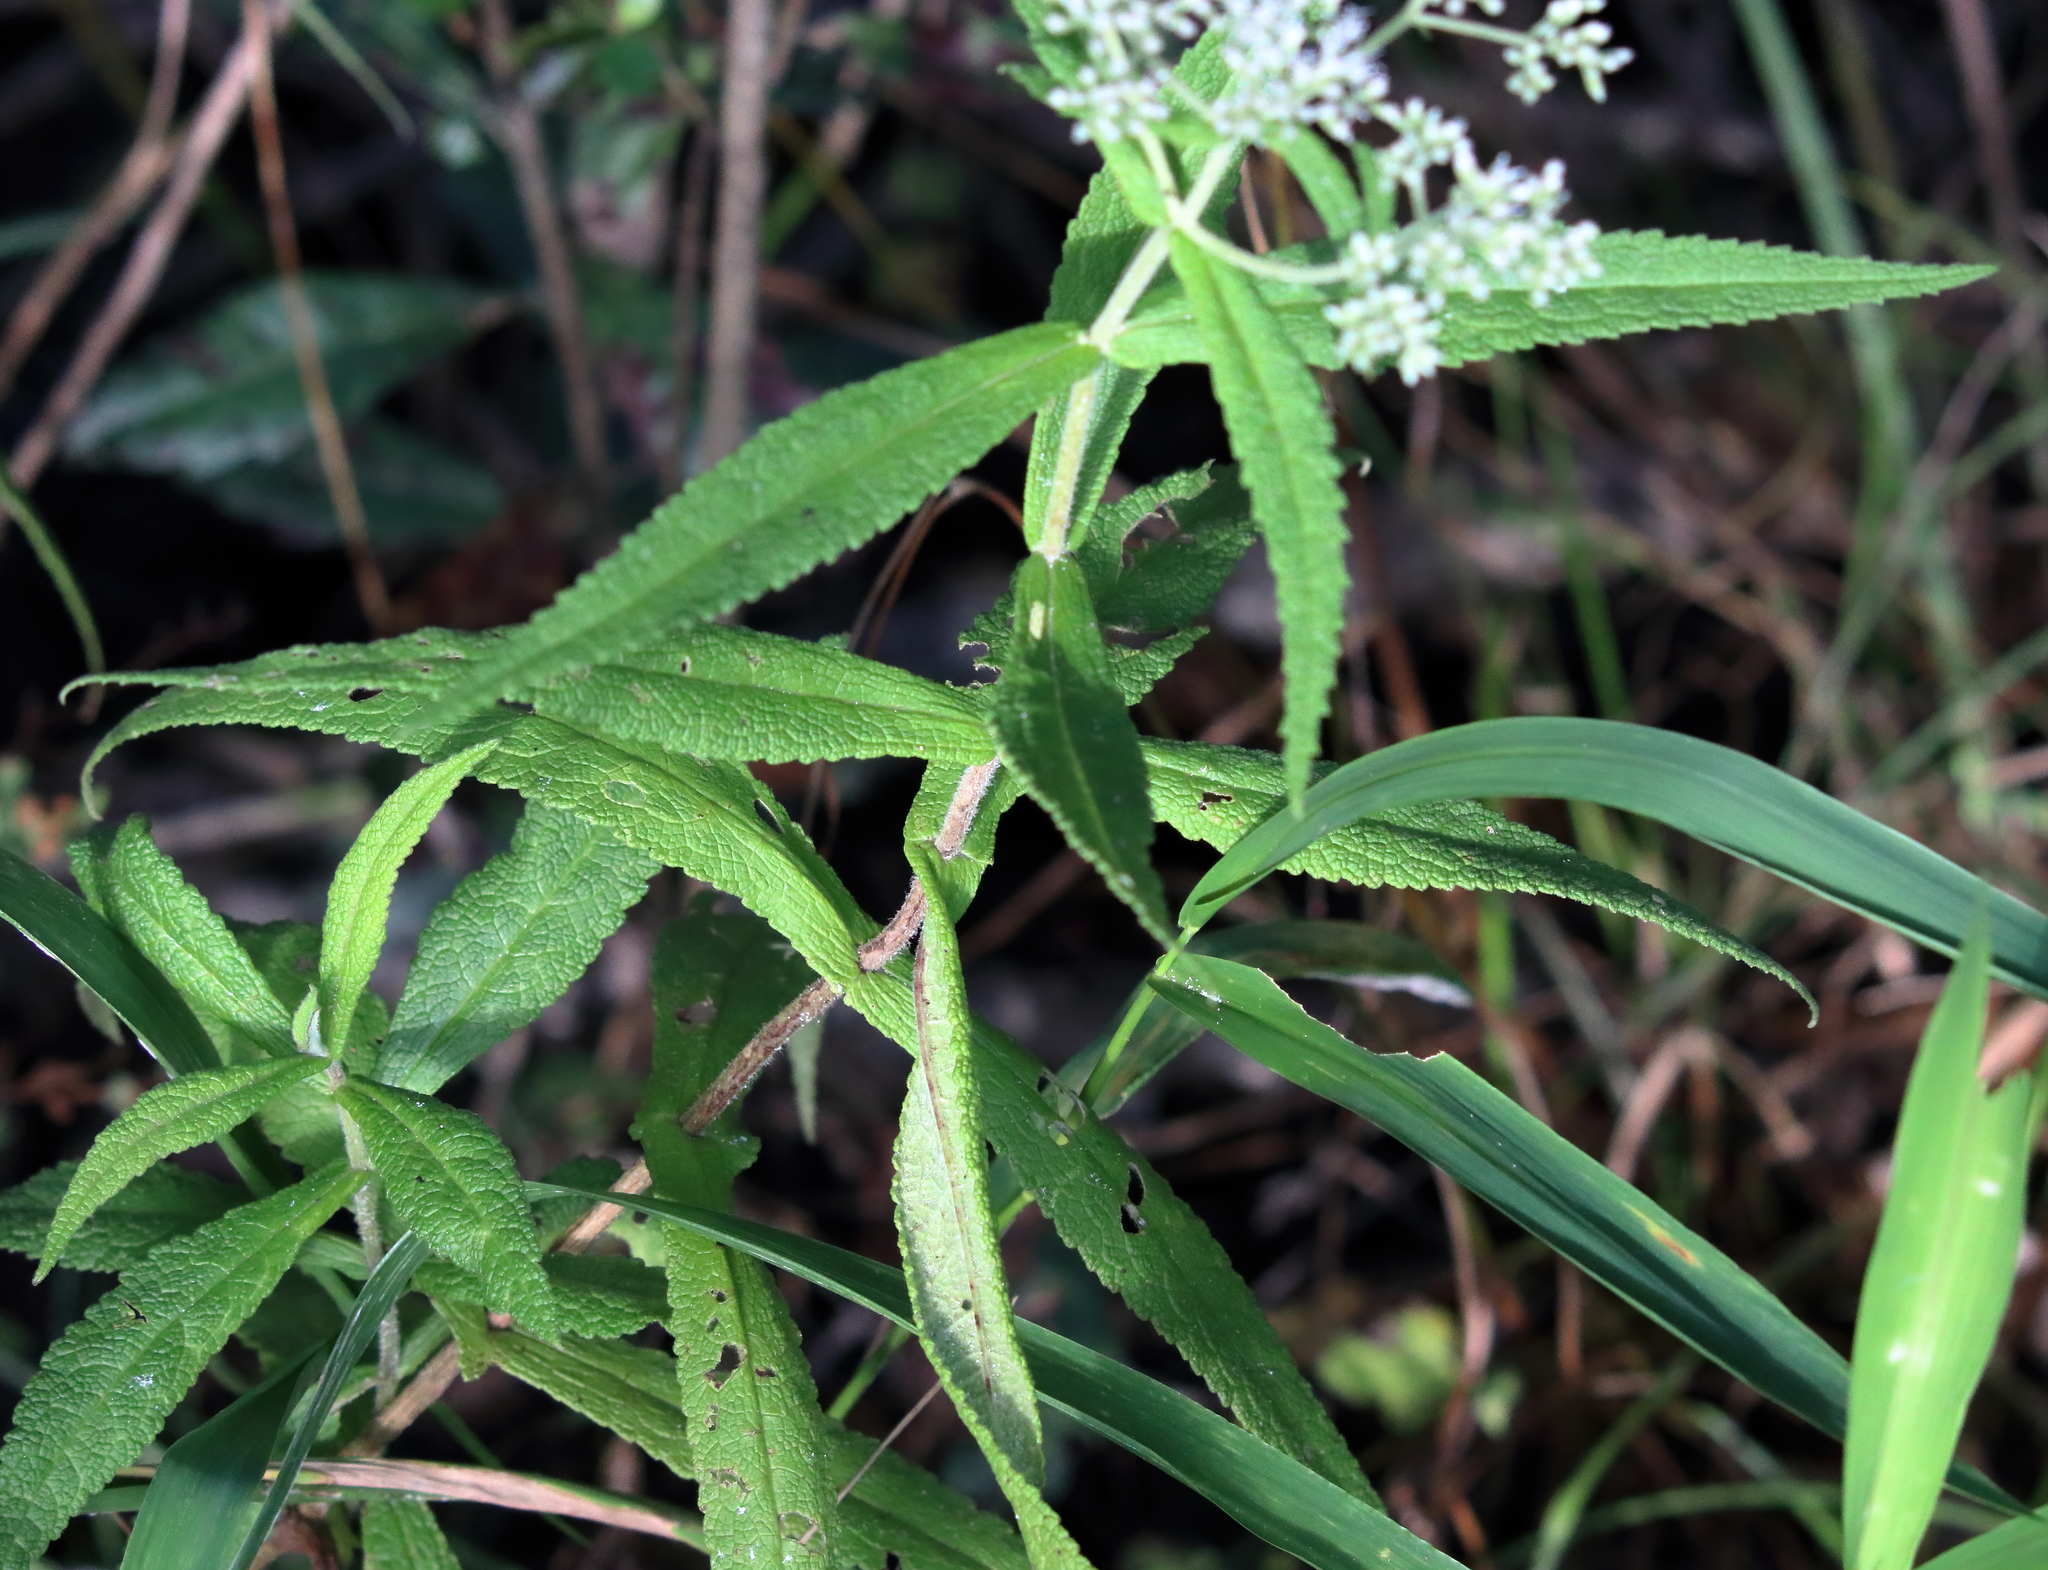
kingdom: Plantae
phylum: Tracheophyta
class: Magnoliopsida
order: Asterales
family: Asteraceae
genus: Eupatorium
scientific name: Eupatorium perfoliatum
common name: Boneset
